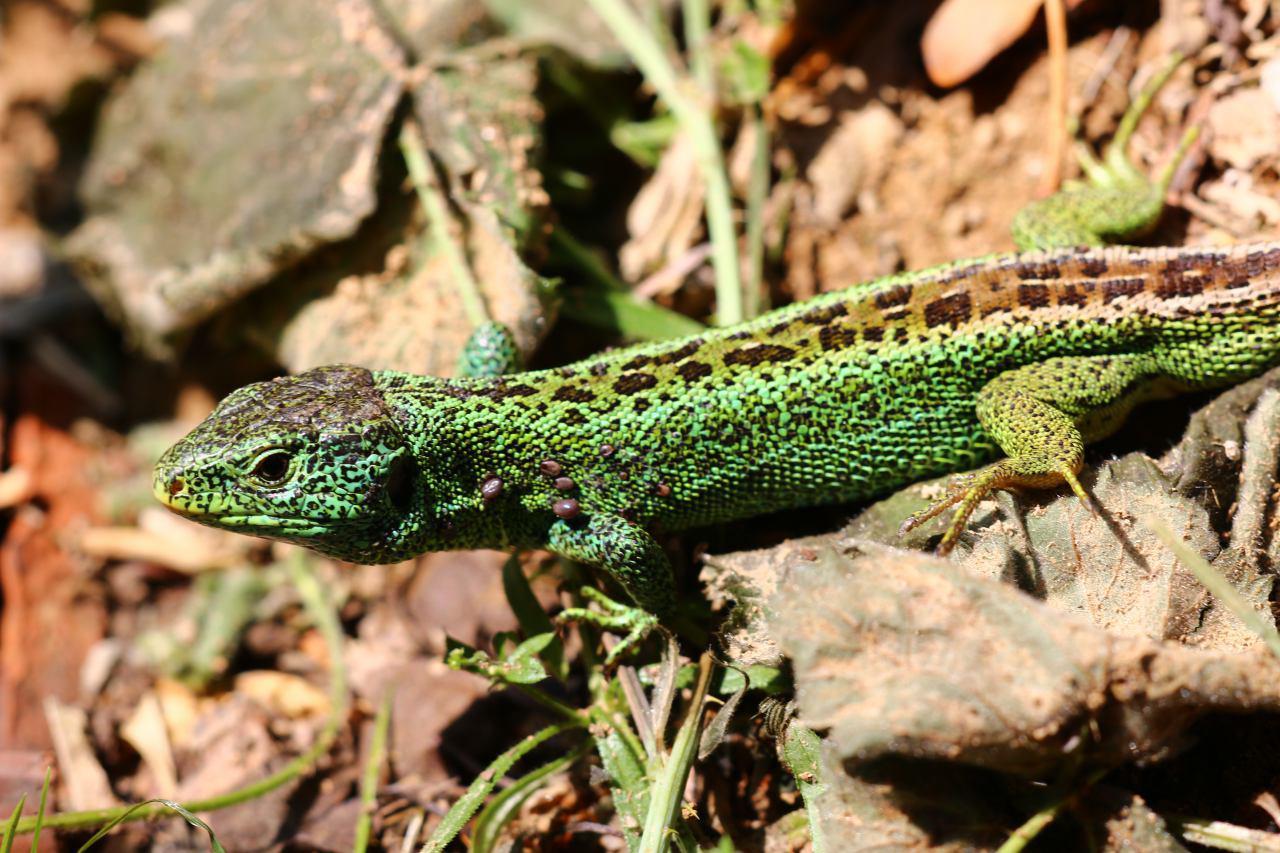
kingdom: Animalia
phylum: Chordata
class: Squamata
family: Lacertidae
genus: Lacerta
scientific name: Lacerta agilis
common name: Sand lizard
